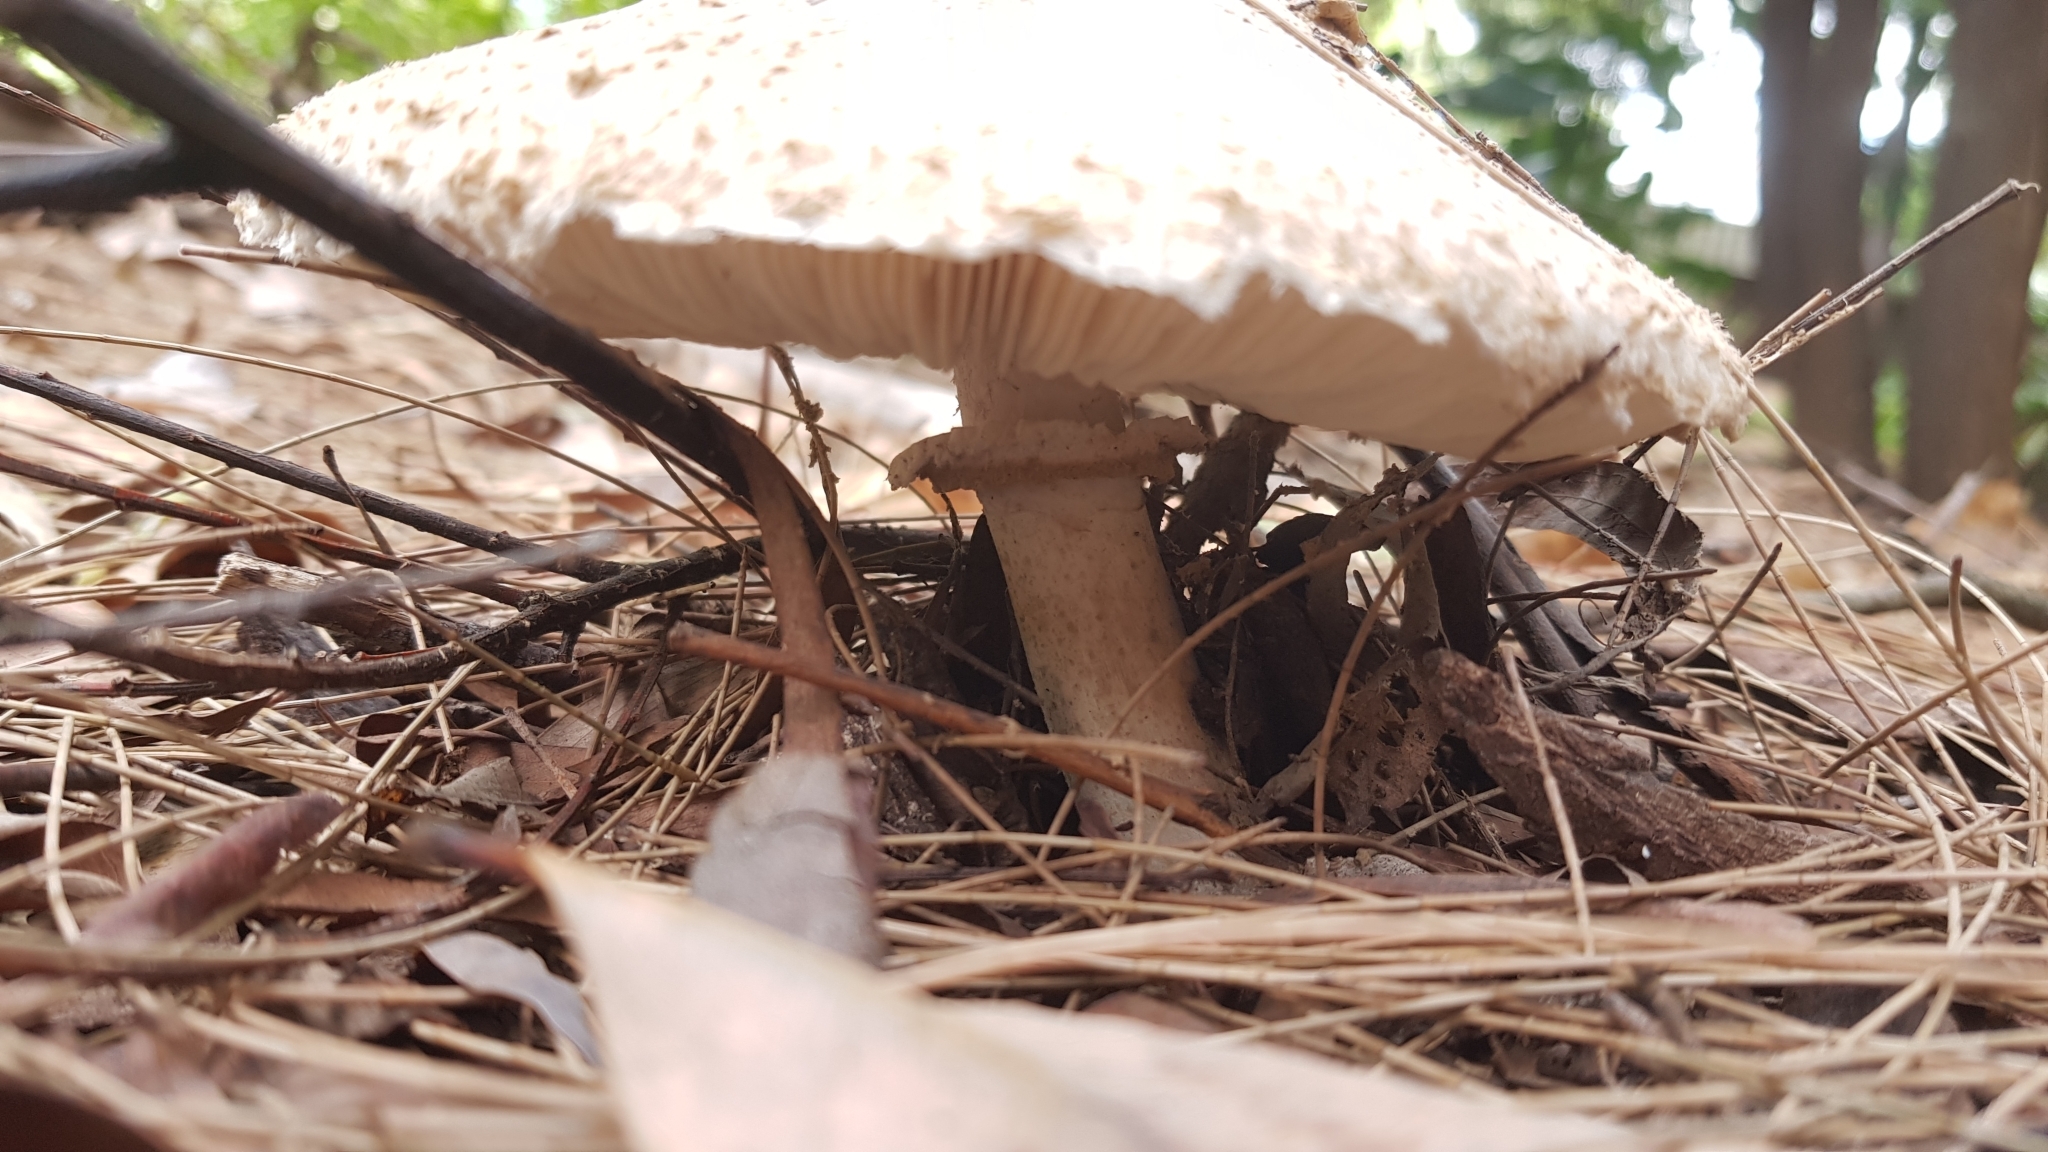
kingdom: Fungi
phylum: Basidiomycota
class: Agaricomycetes
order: Agaricales
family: Agaricaceae
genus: Chlorophyllum
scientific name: Chlorophyllum nothorhacodes
